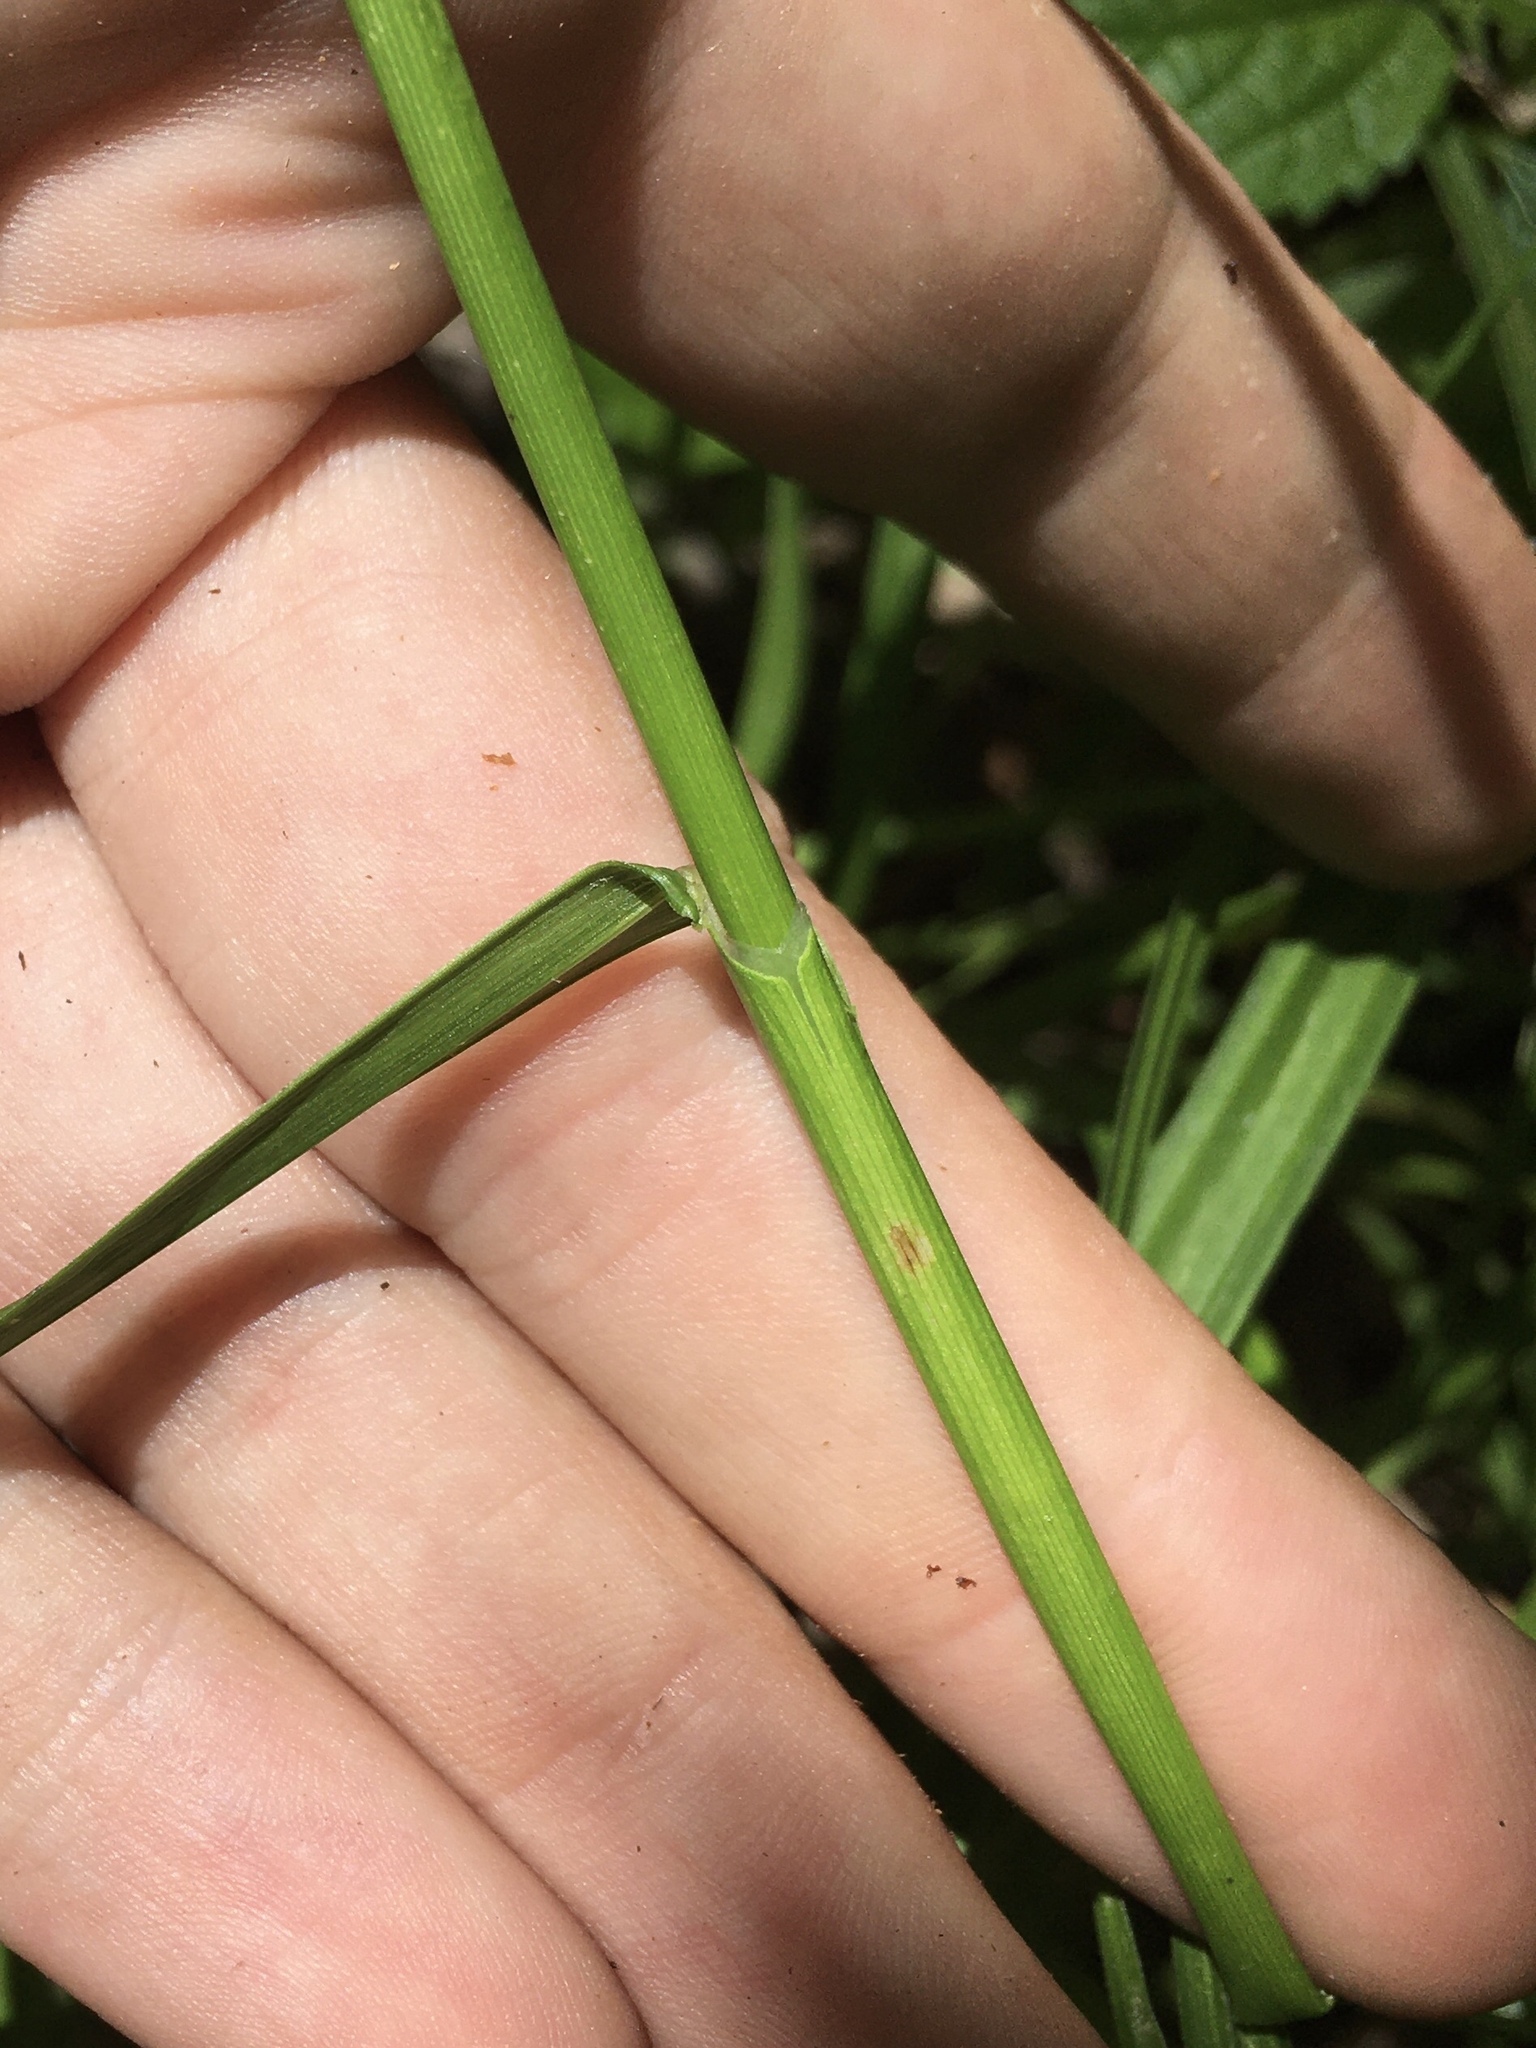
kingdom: Plantae
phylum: Tracheophyta
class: Liliopsida
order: Poales
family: Cyperaceae
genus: Carex
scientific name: Carex muskingumensis
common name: Muskingum sedge
